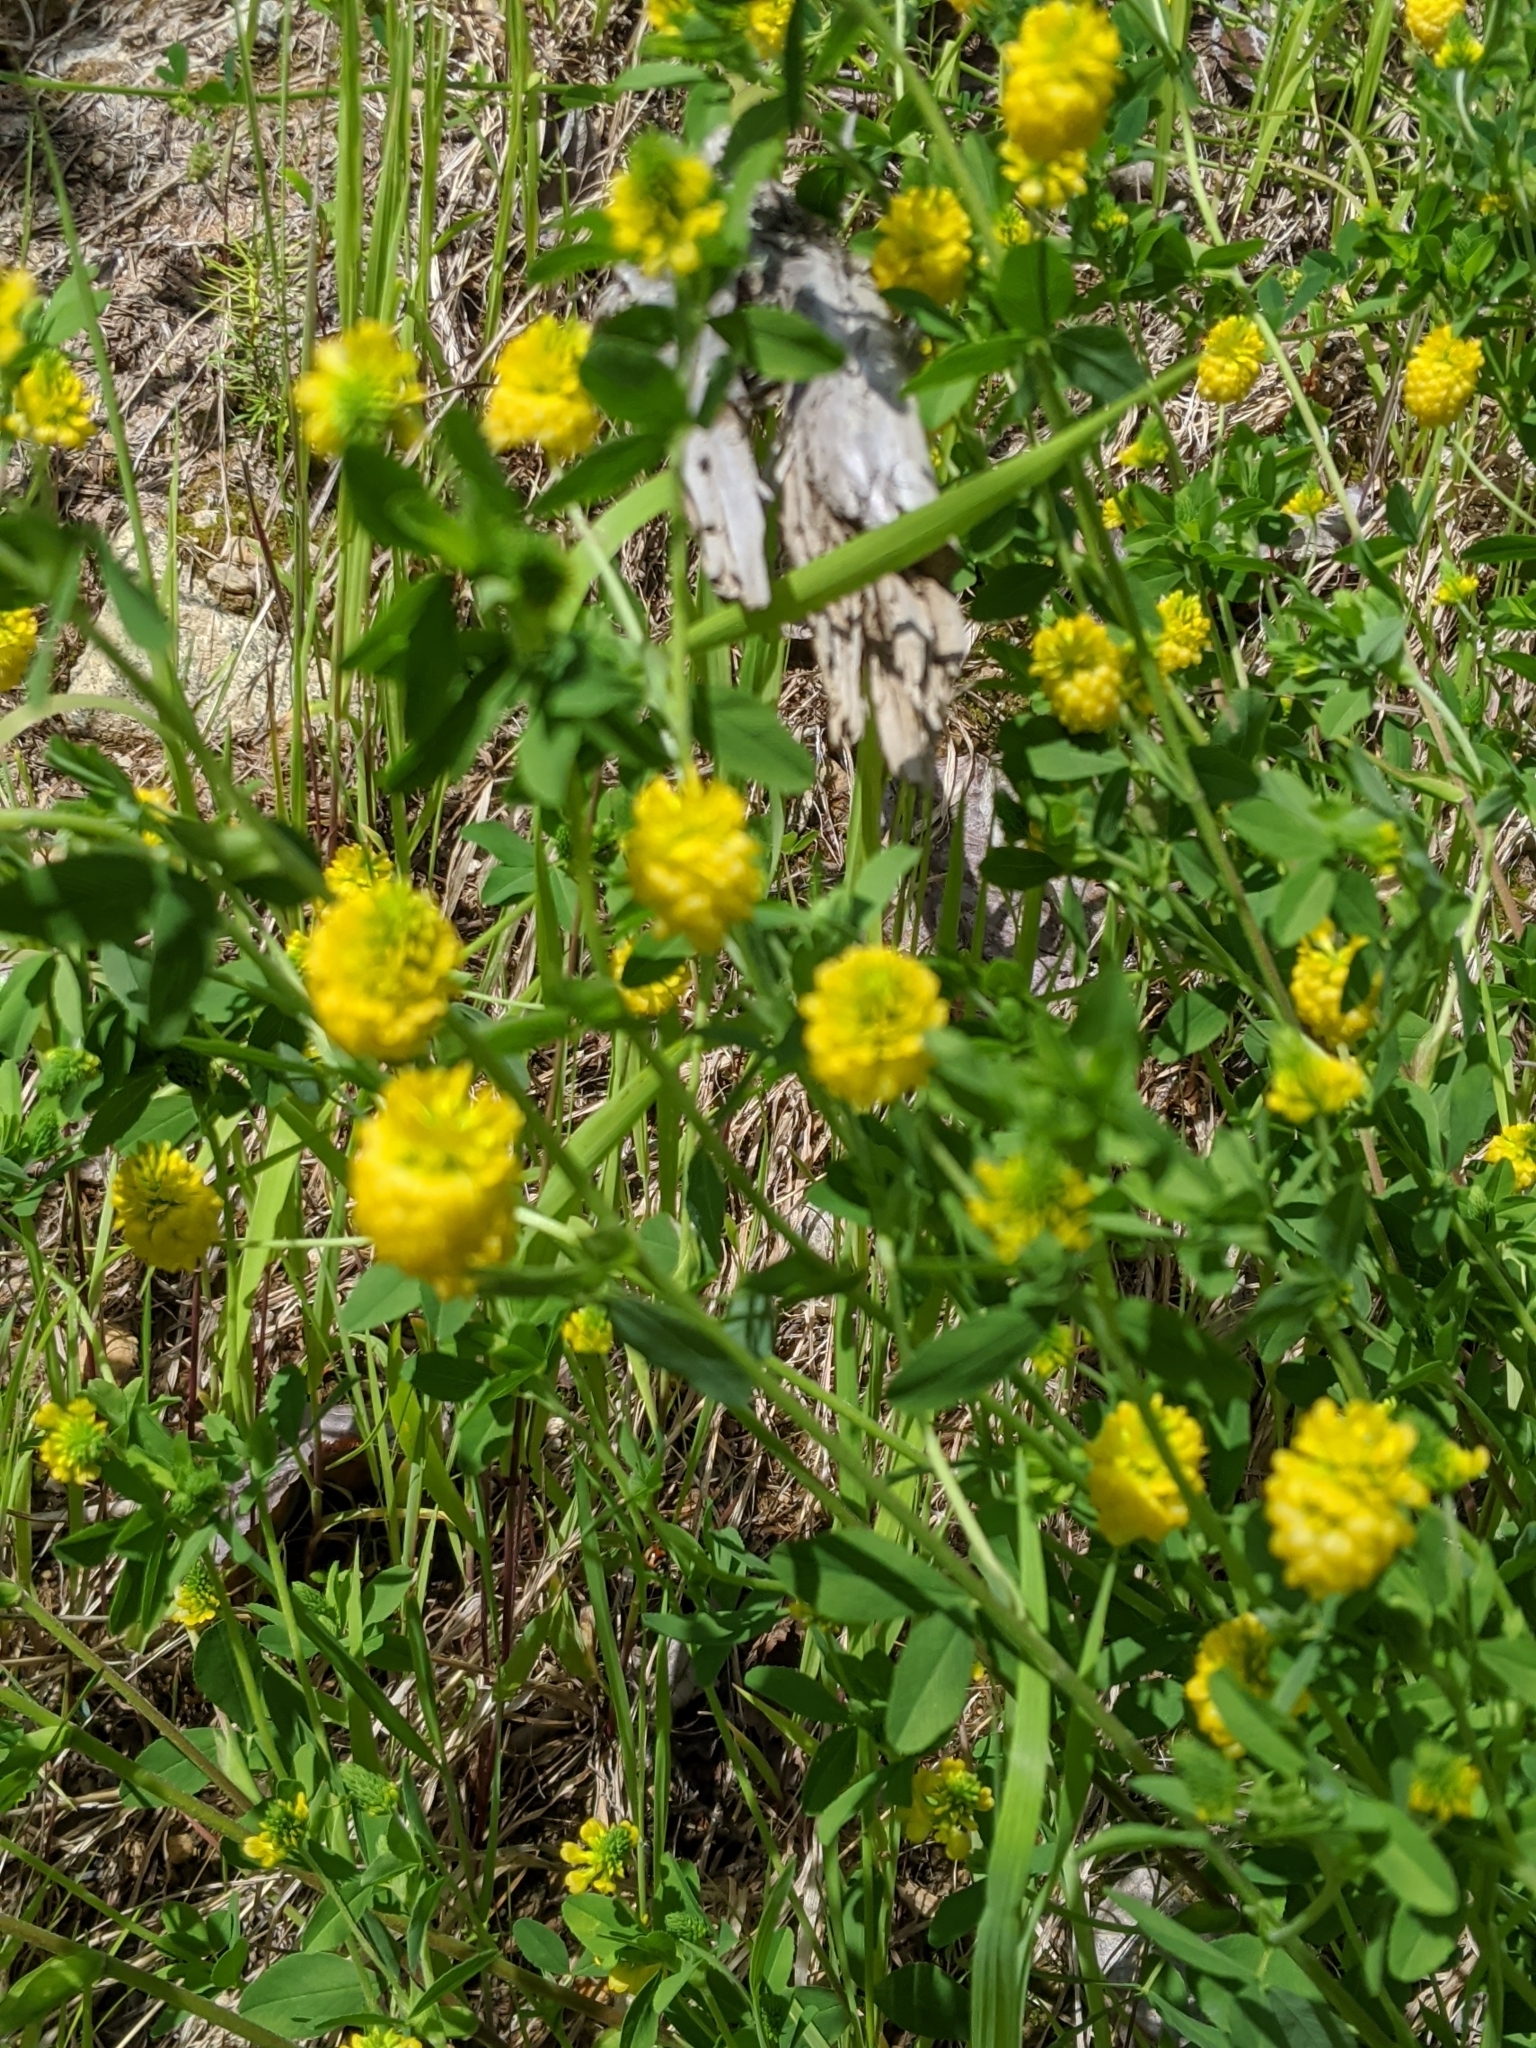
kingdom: Plantae
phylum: Tracheophyta
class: Magnoliopsida
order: Fabales
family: Fabaceae
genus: Trifolium
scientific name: Trifolium aureum
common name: Golden clover
